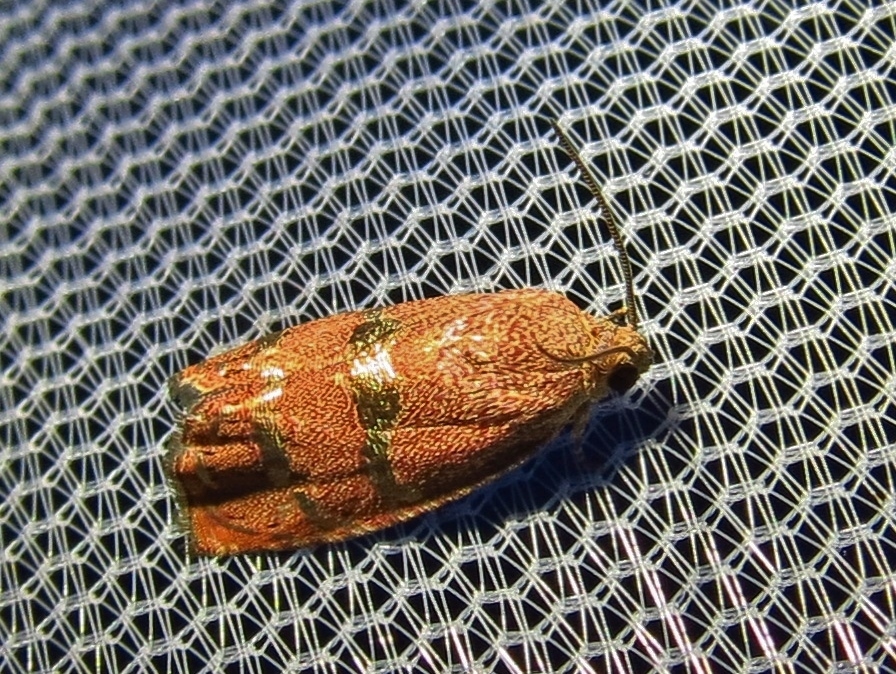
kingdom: Animalia
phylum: Arthropoda
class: Insecta
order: Lepidoptera
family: Tortricidae
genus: Cydia
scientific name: Cydia latiferreana
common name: Filbertworm moth
